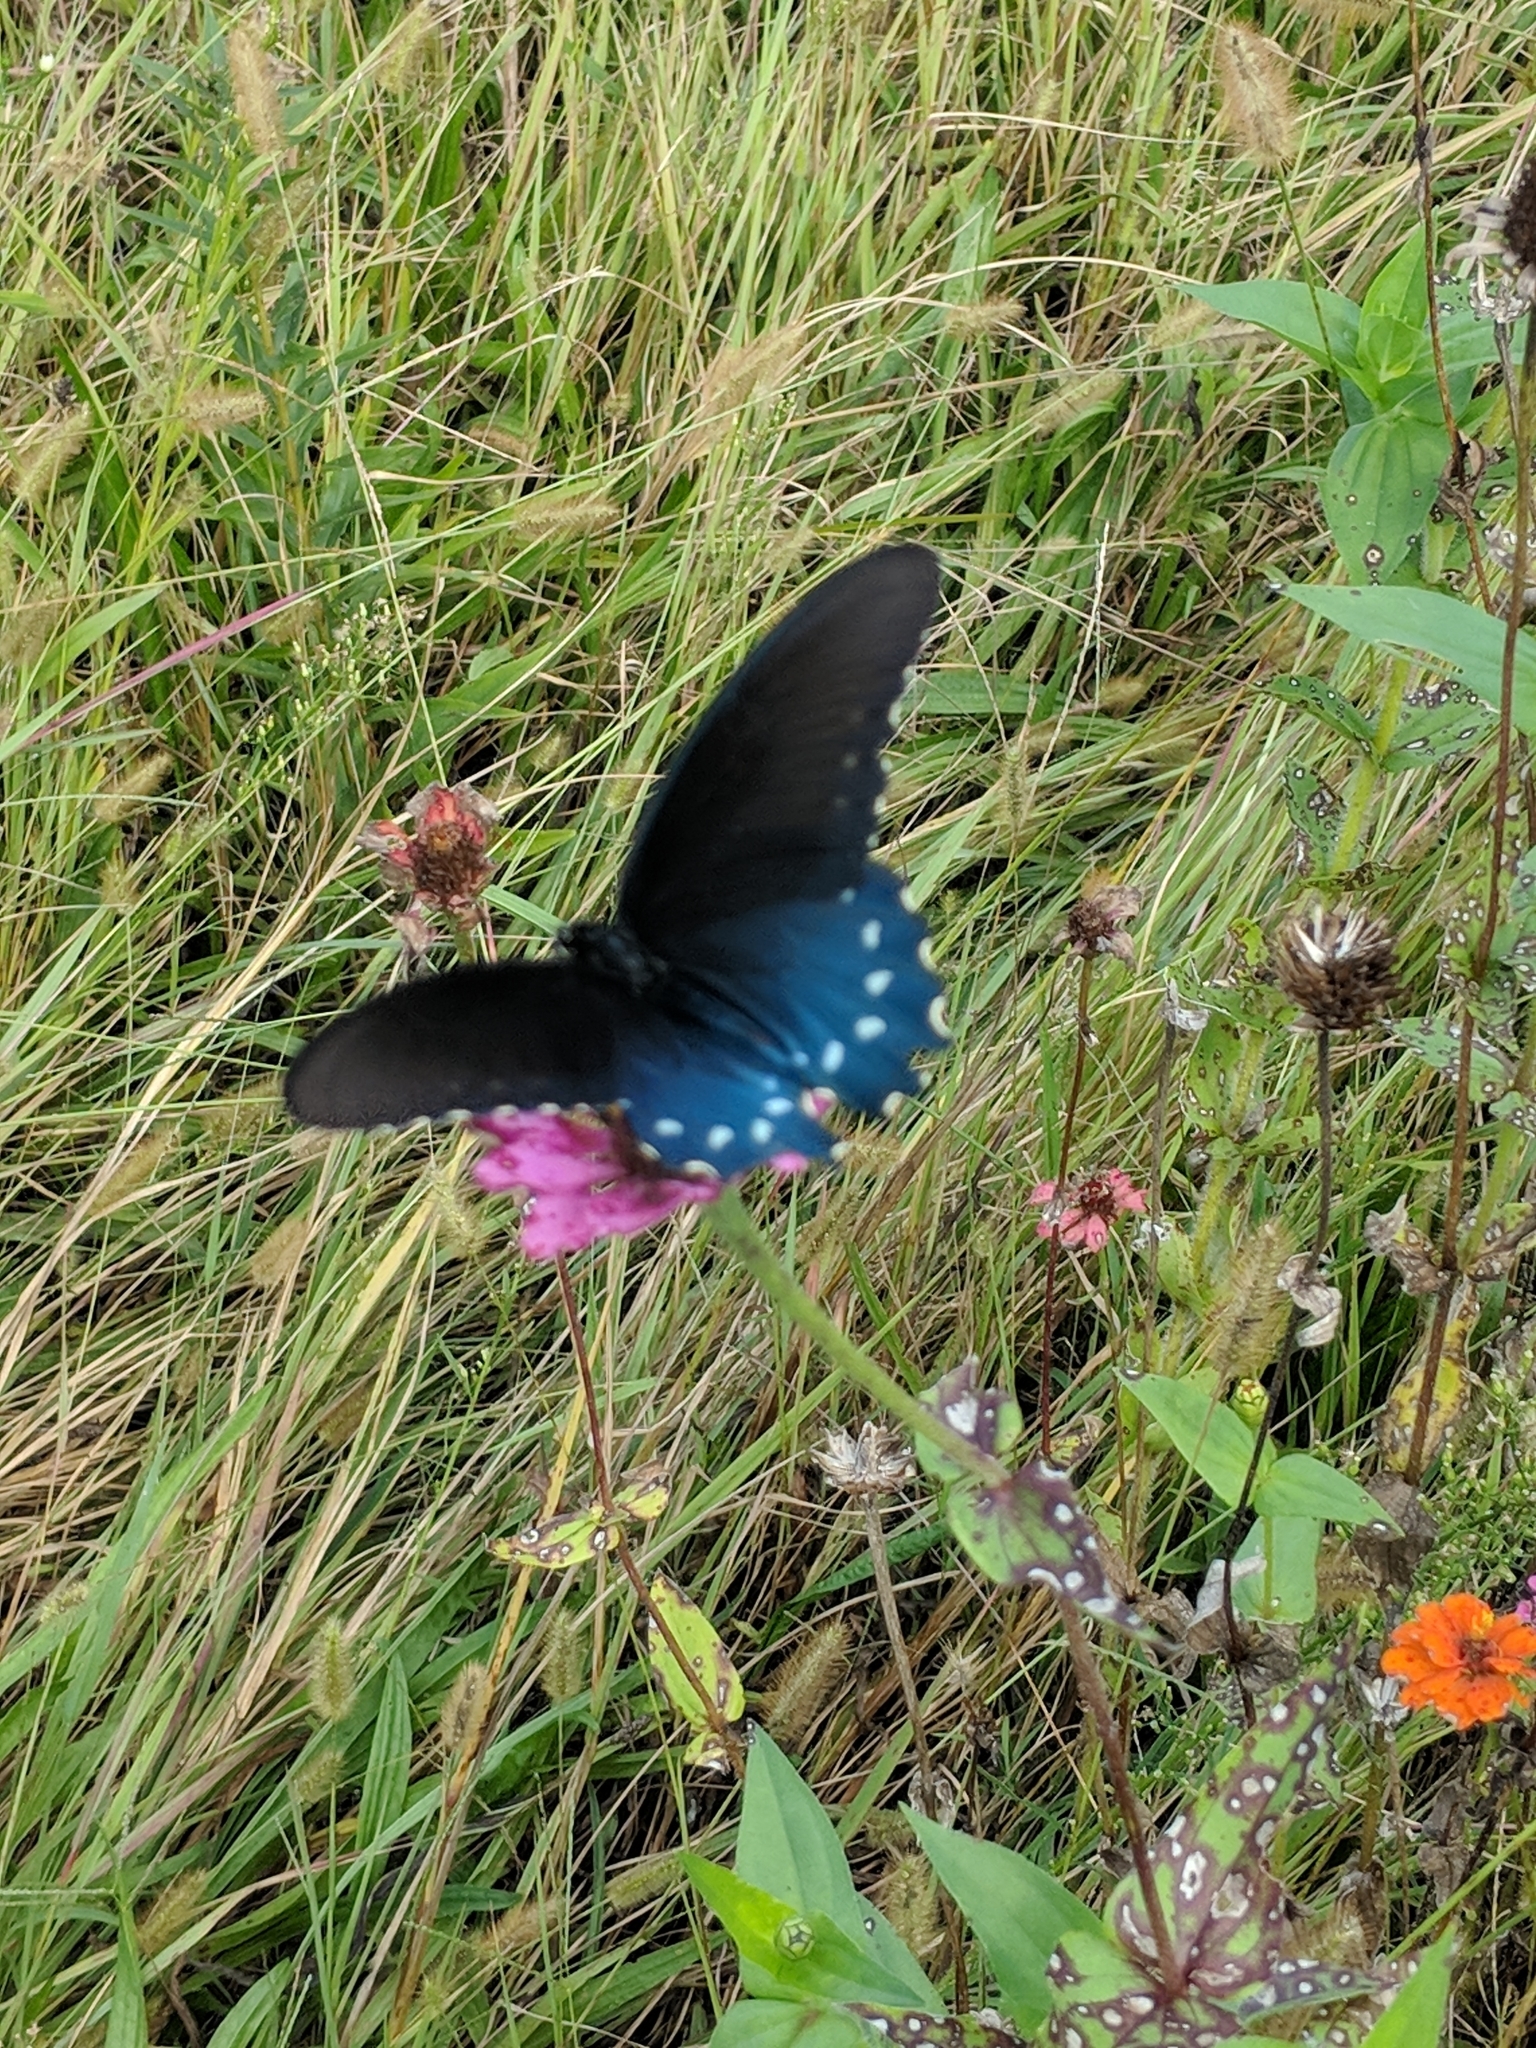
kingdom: Animalia
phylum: Arthropoda
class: Insecta
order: Lepidoptera
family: Papilionidae
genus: Battus
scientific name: Battus philenor
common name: Pipevine swallowtail
